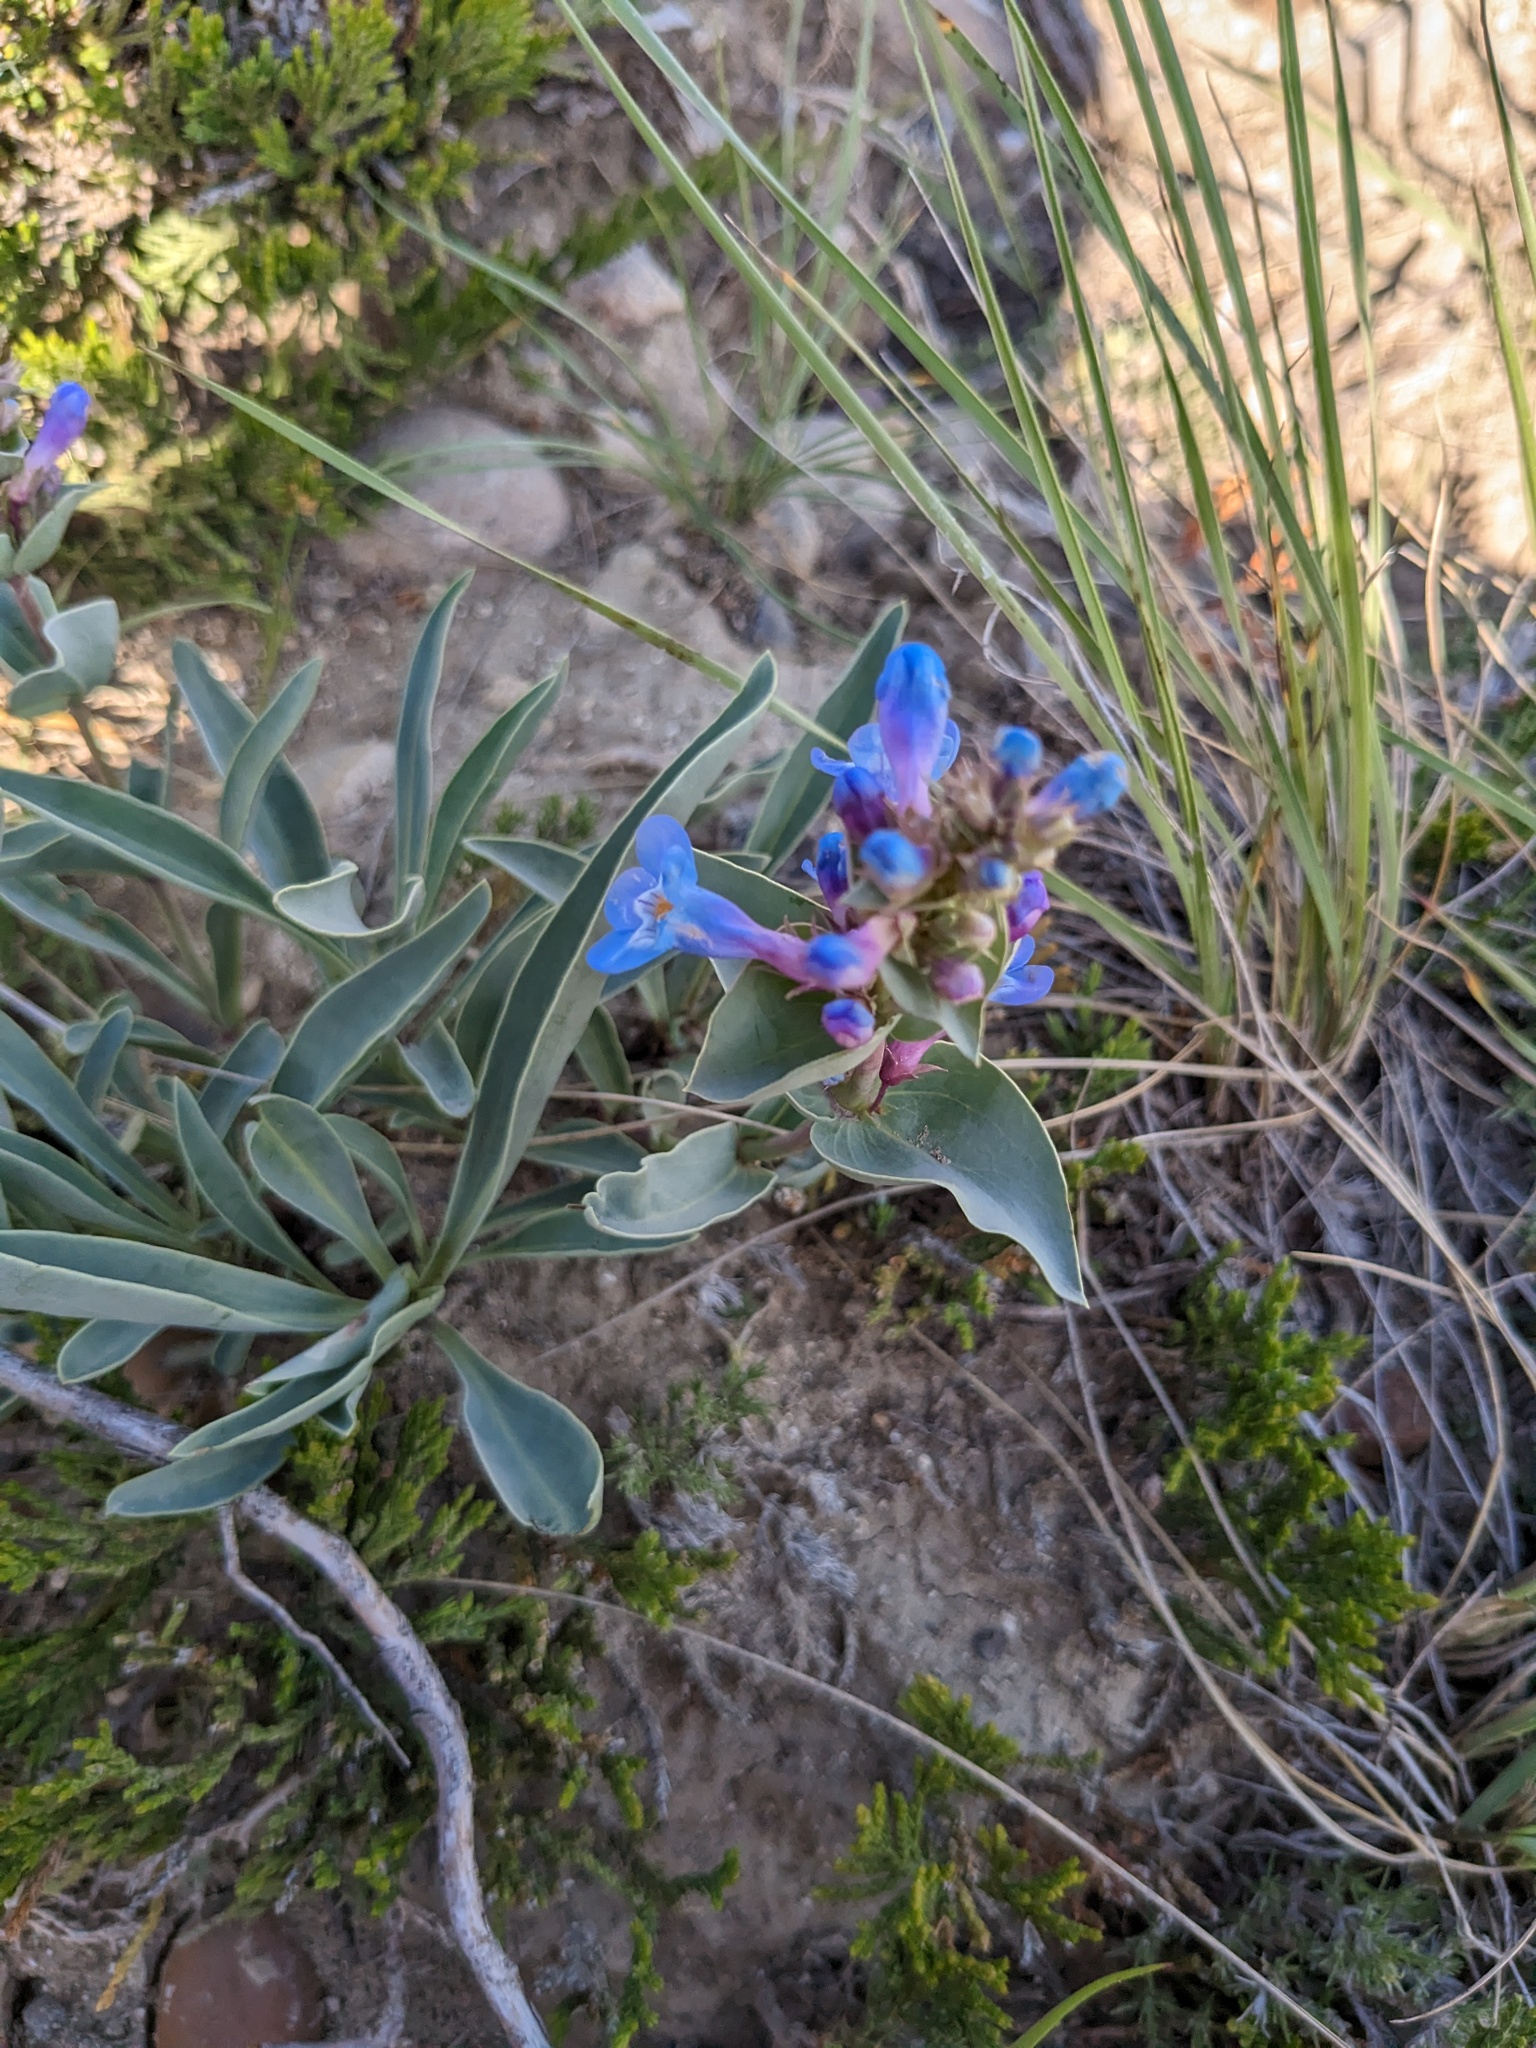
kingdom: Plantae
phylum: Tracheophyta
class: Magnoliopsida
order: Lamiales
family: Plantaginaceae
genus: Penstemon
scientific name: Penstemon nitidus
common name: Shining penstemon
